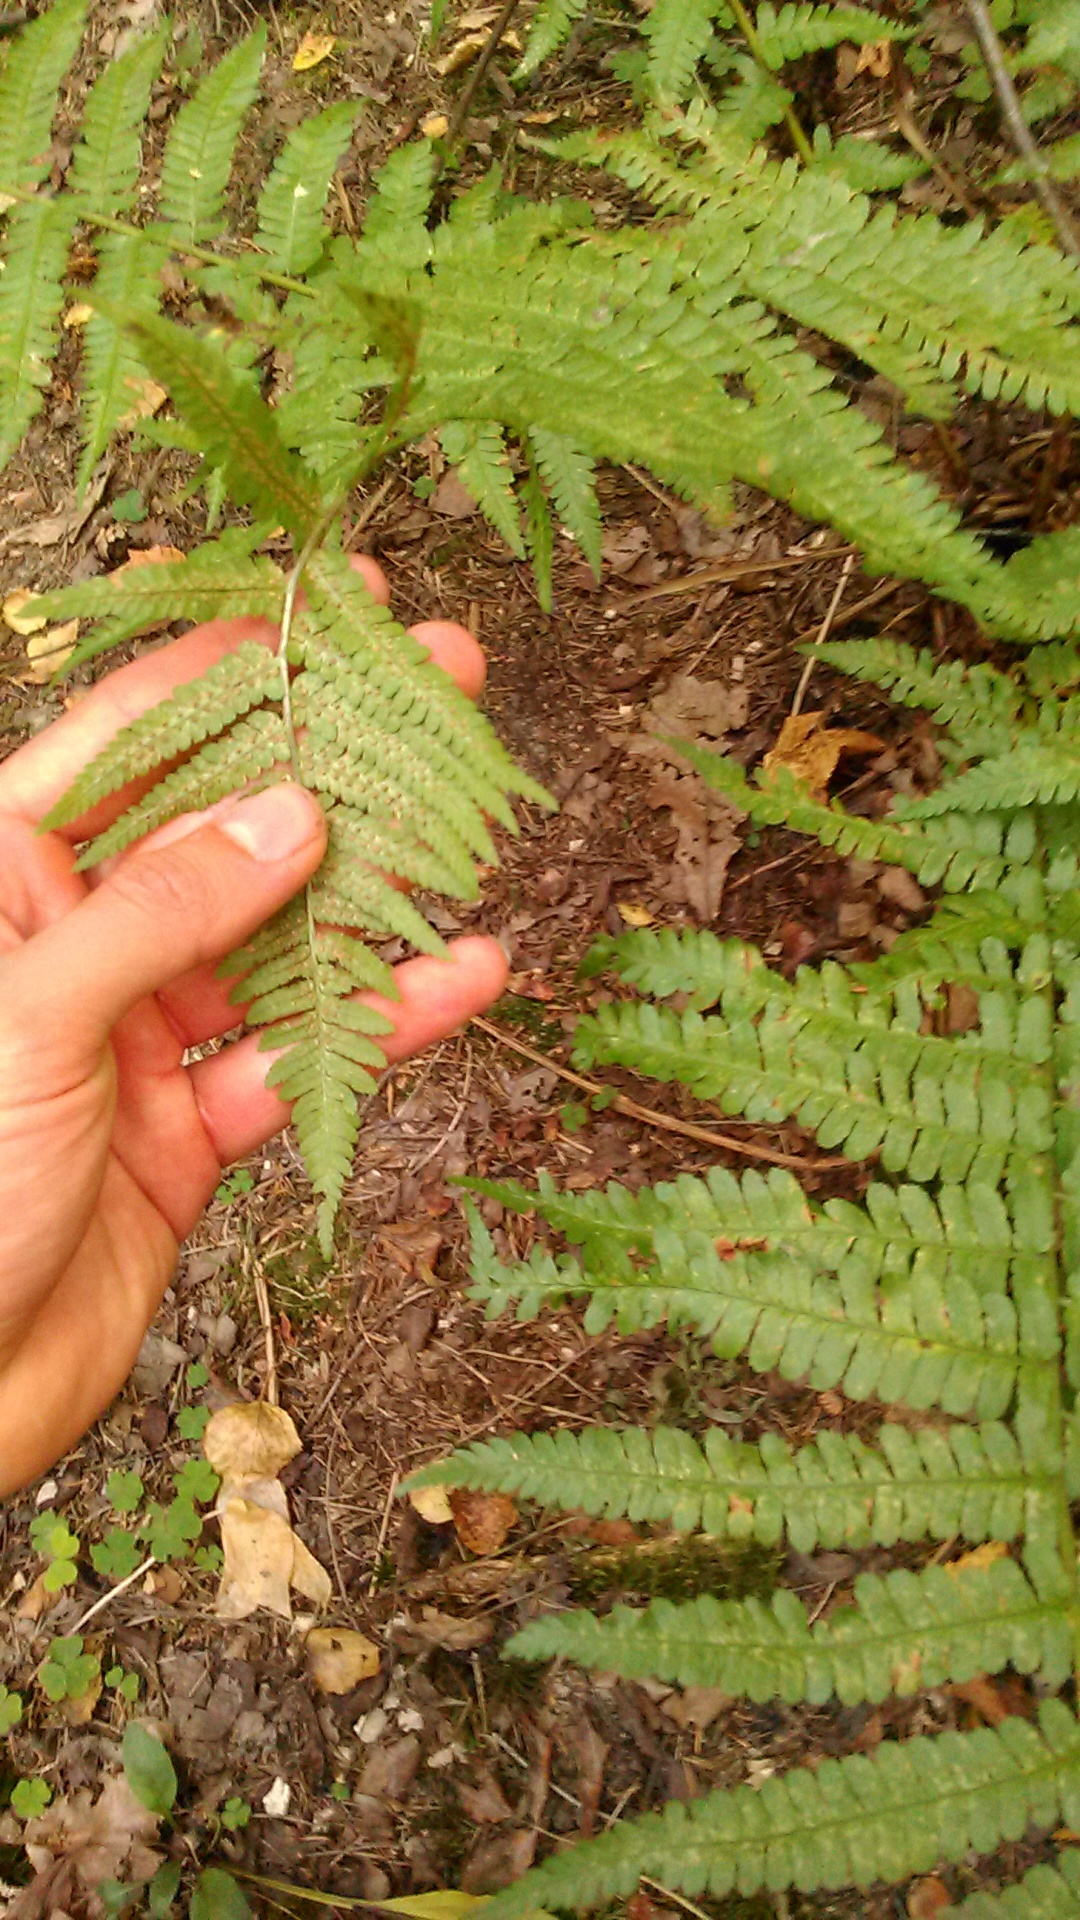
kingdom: Plantae
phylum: Tracheophyta
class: Polypodiopsida
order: Polypodiales
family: Dryopteridaceae
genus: Dryopteris
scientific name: Dryopteris filix-mas
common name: Male fern
